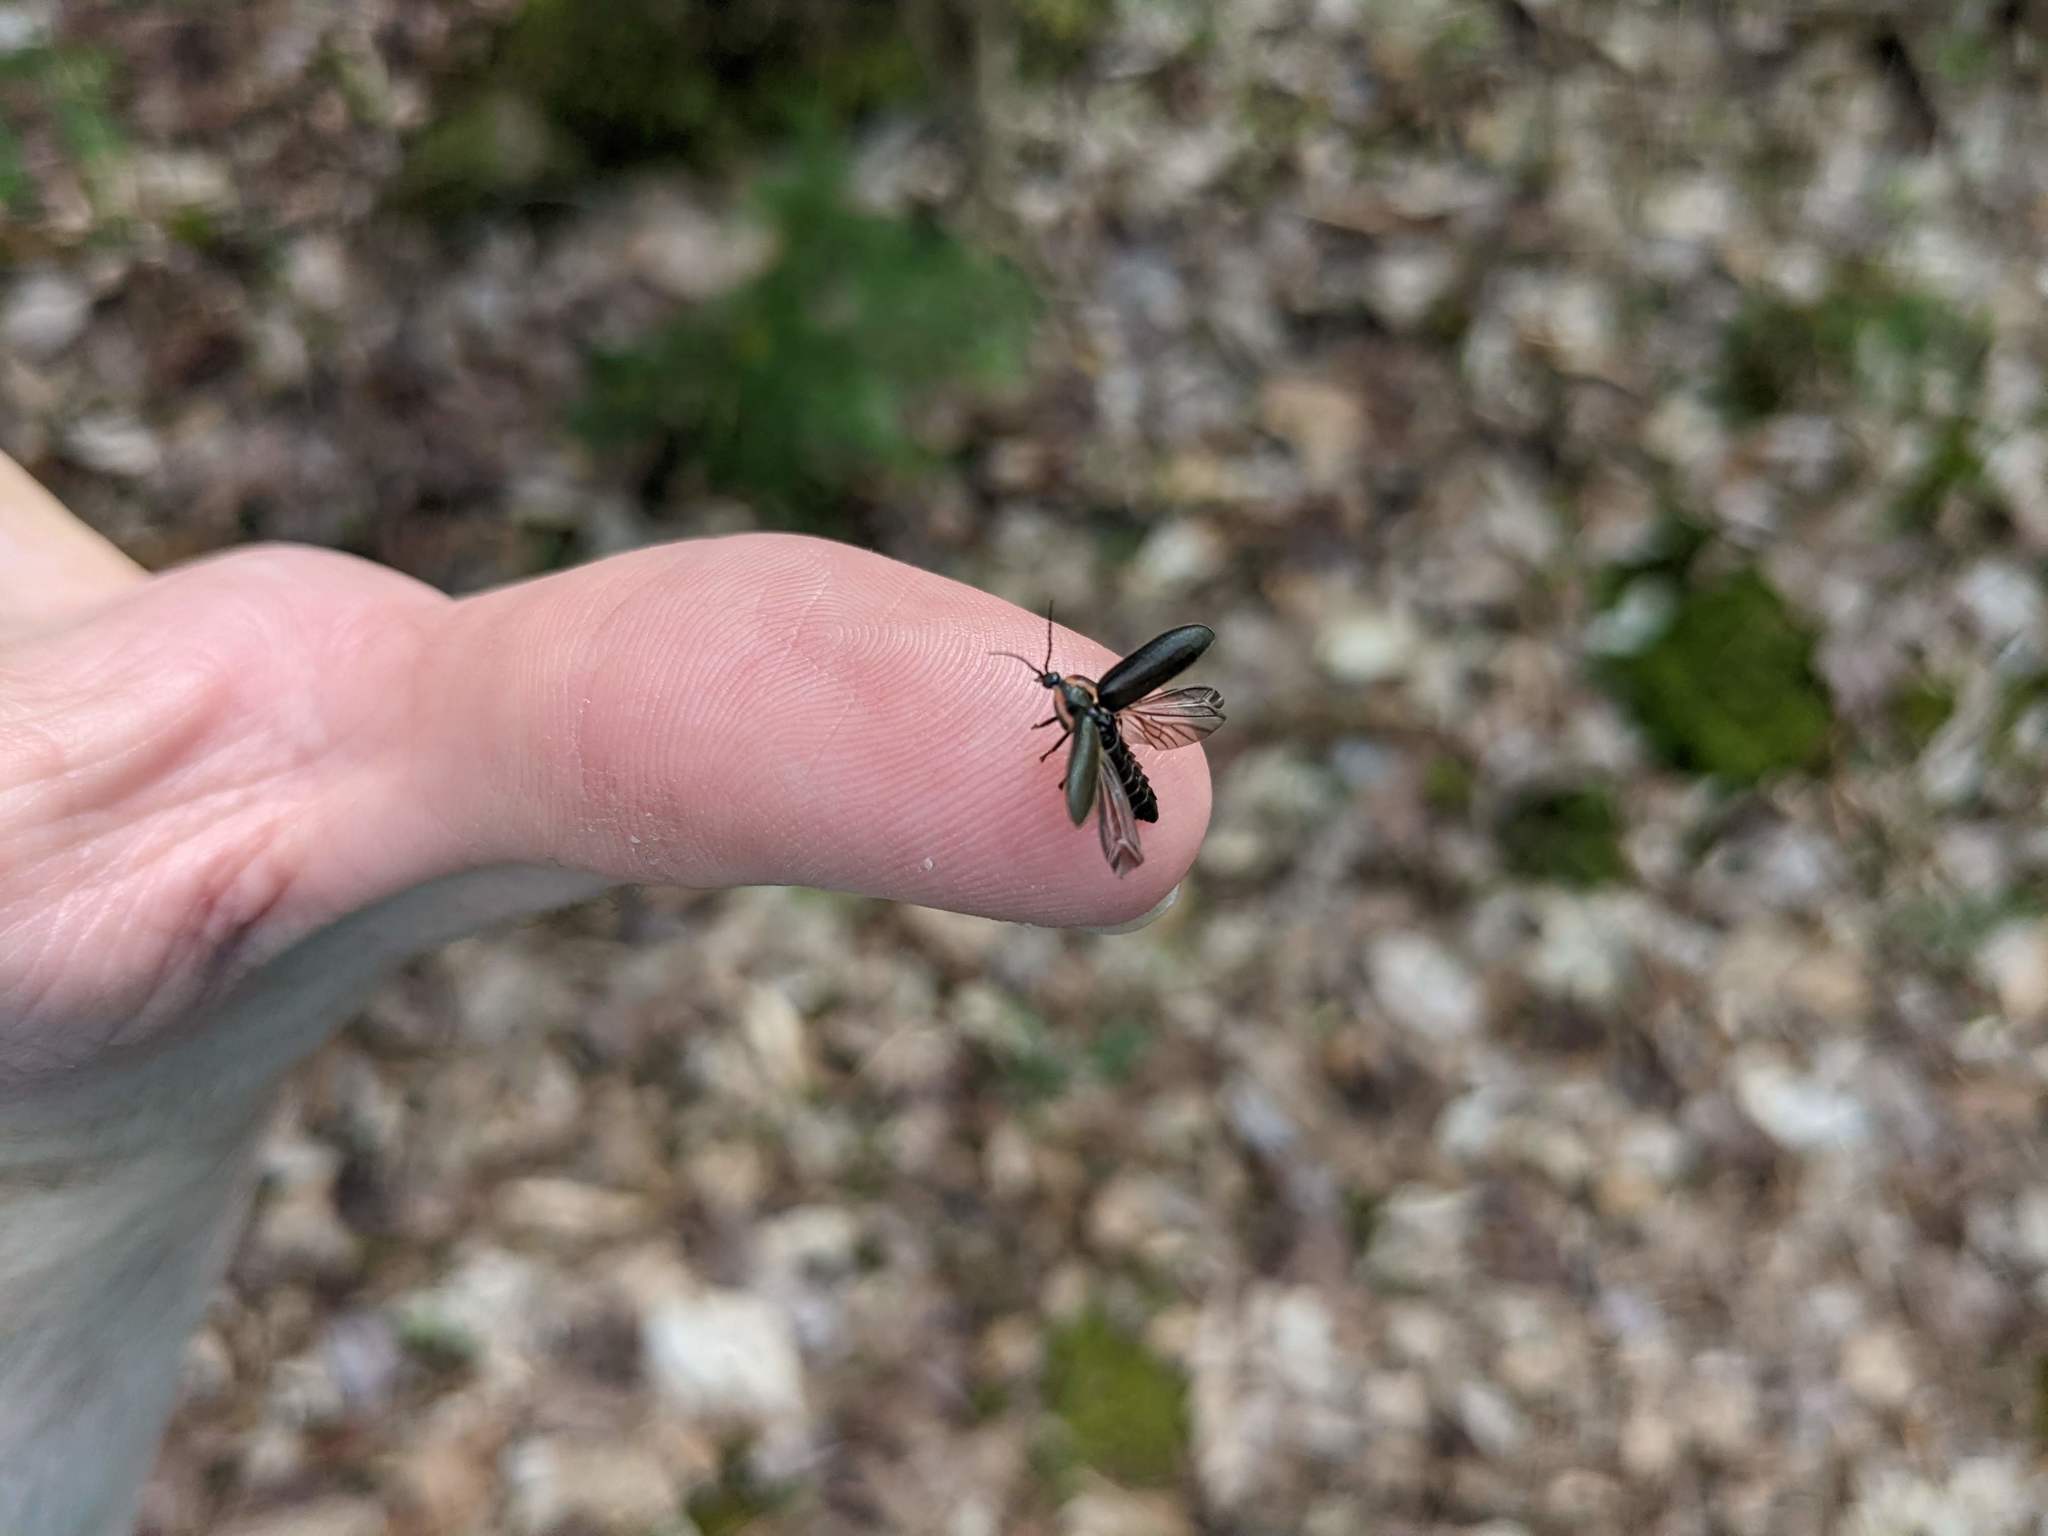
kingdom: Animalia
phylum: Arthropoda
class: Insecta
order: Coleoptera
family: Lampyridae
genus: Photinus
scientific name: Photinus corrusca
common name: Winter firefly
